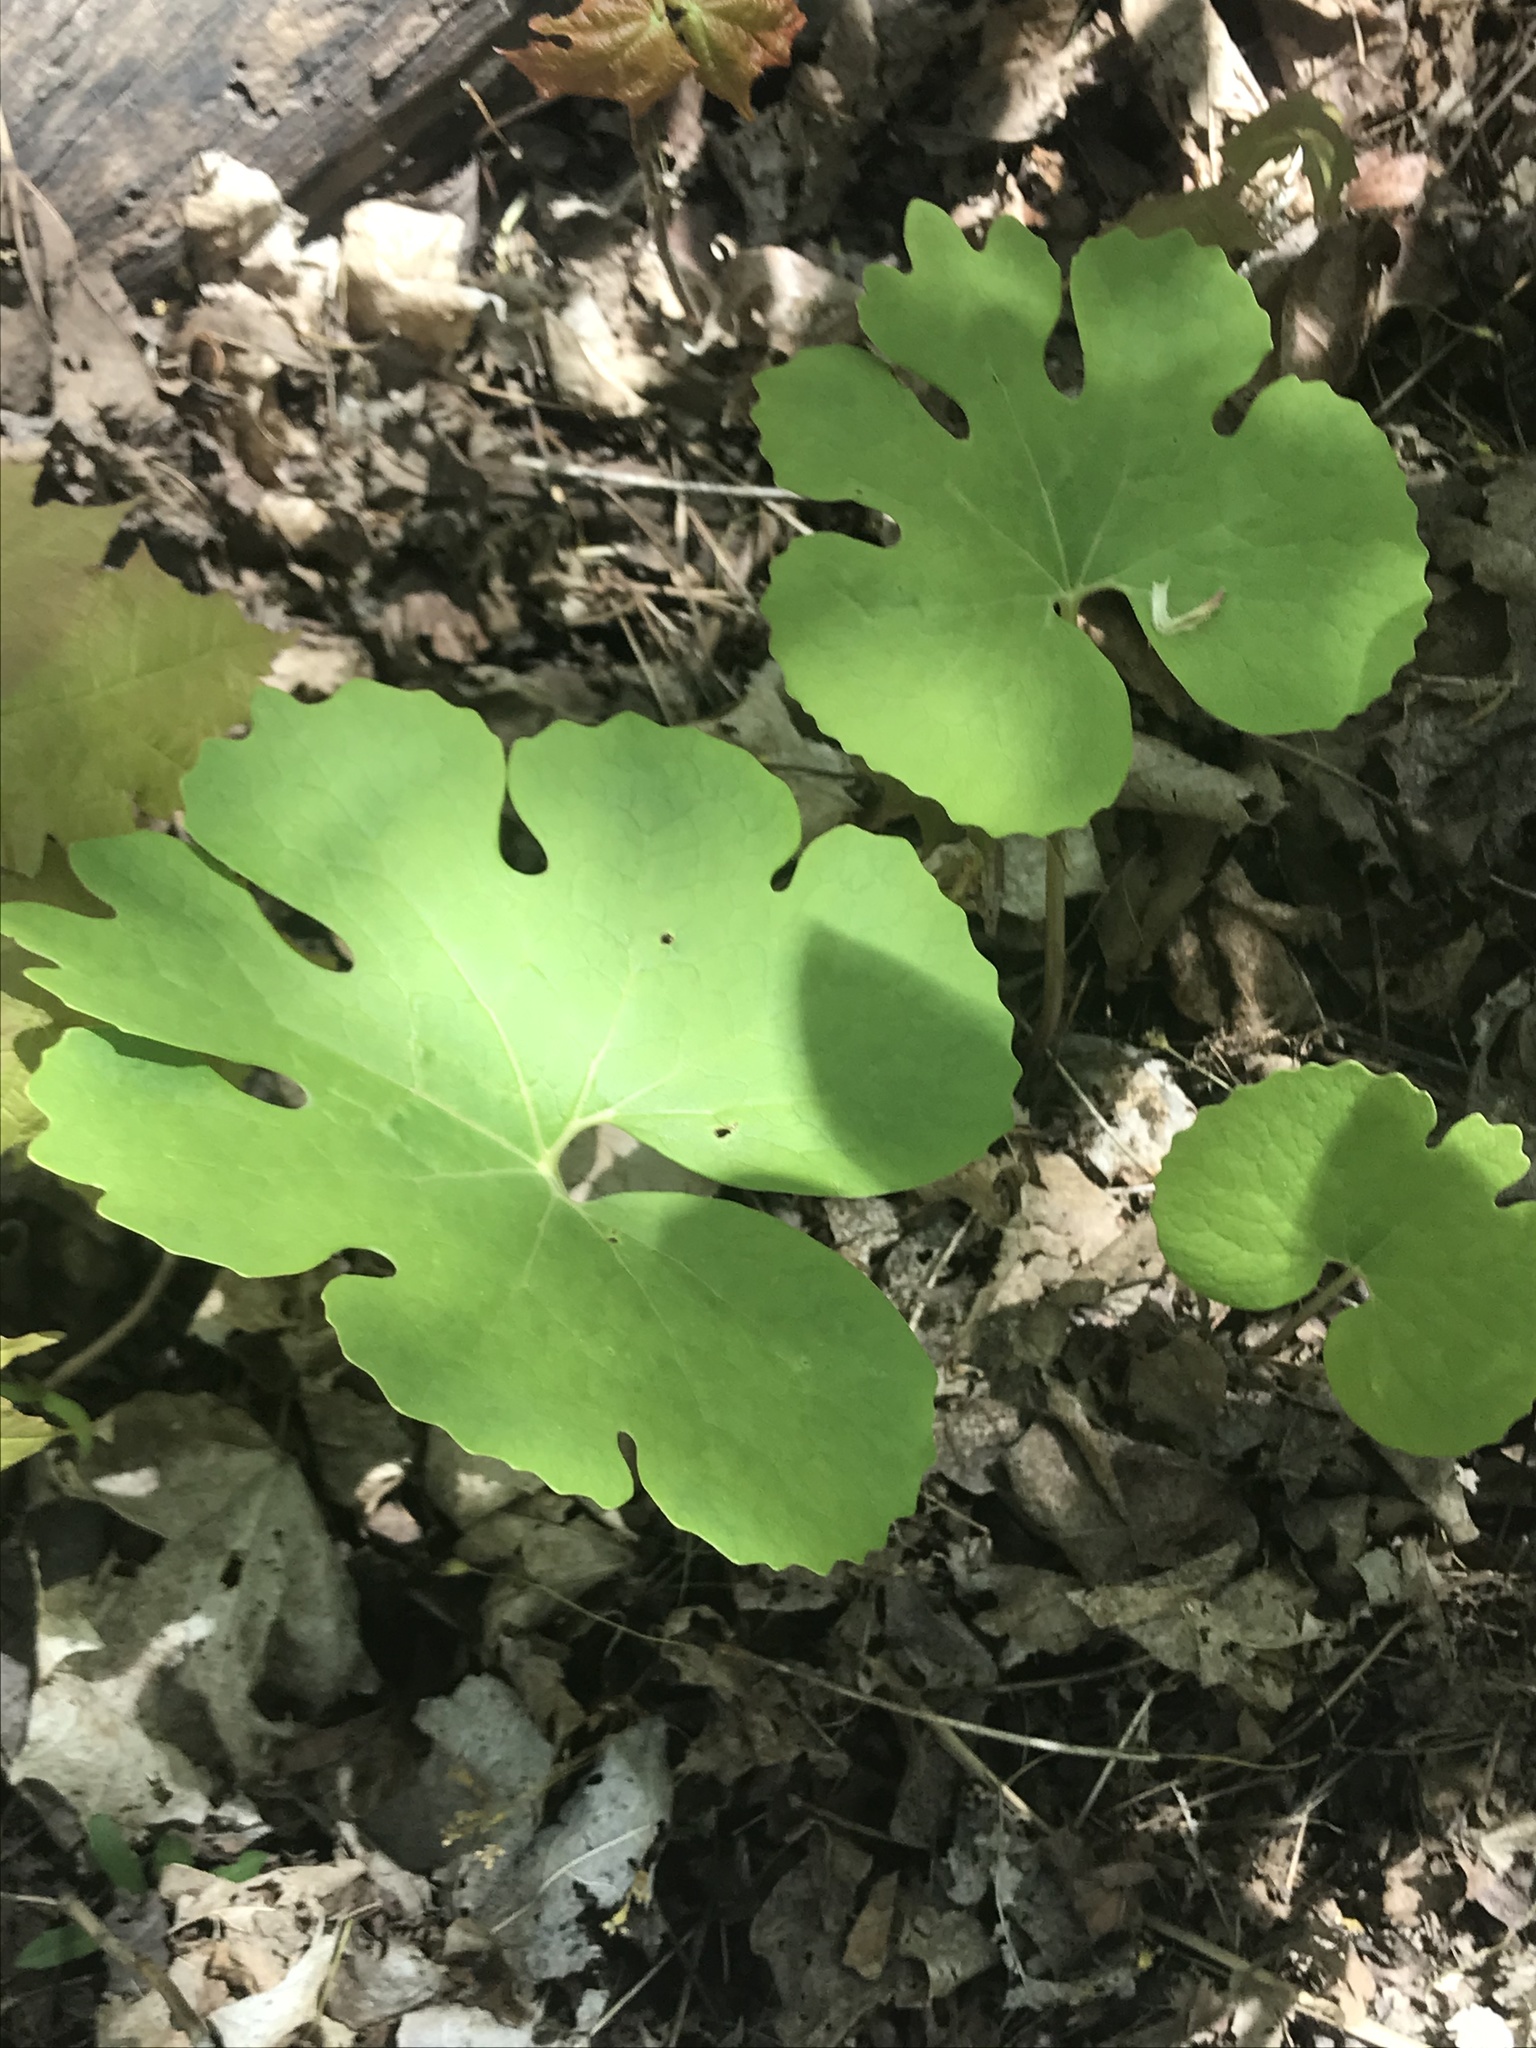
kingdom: Plantae
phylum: Tracheophyta
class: Magnoliopsida
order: Ranunculales
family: Papaveraceae
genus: Sanguinaria
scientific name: Sanguinaria canadensis
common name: Bloodroot
